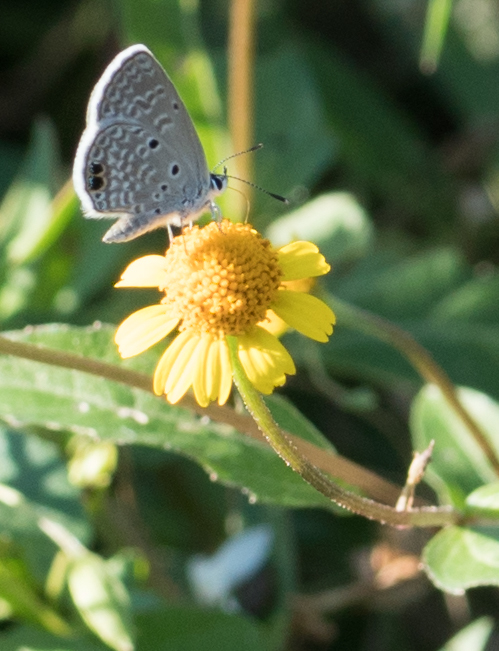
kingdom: Animalia
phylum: Arthropoda
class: Insecta
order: Lepidoptera
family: Lycaenidae
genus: Hemiargus
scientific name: Hemiargus ceraunus
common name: Ceraunus blue
